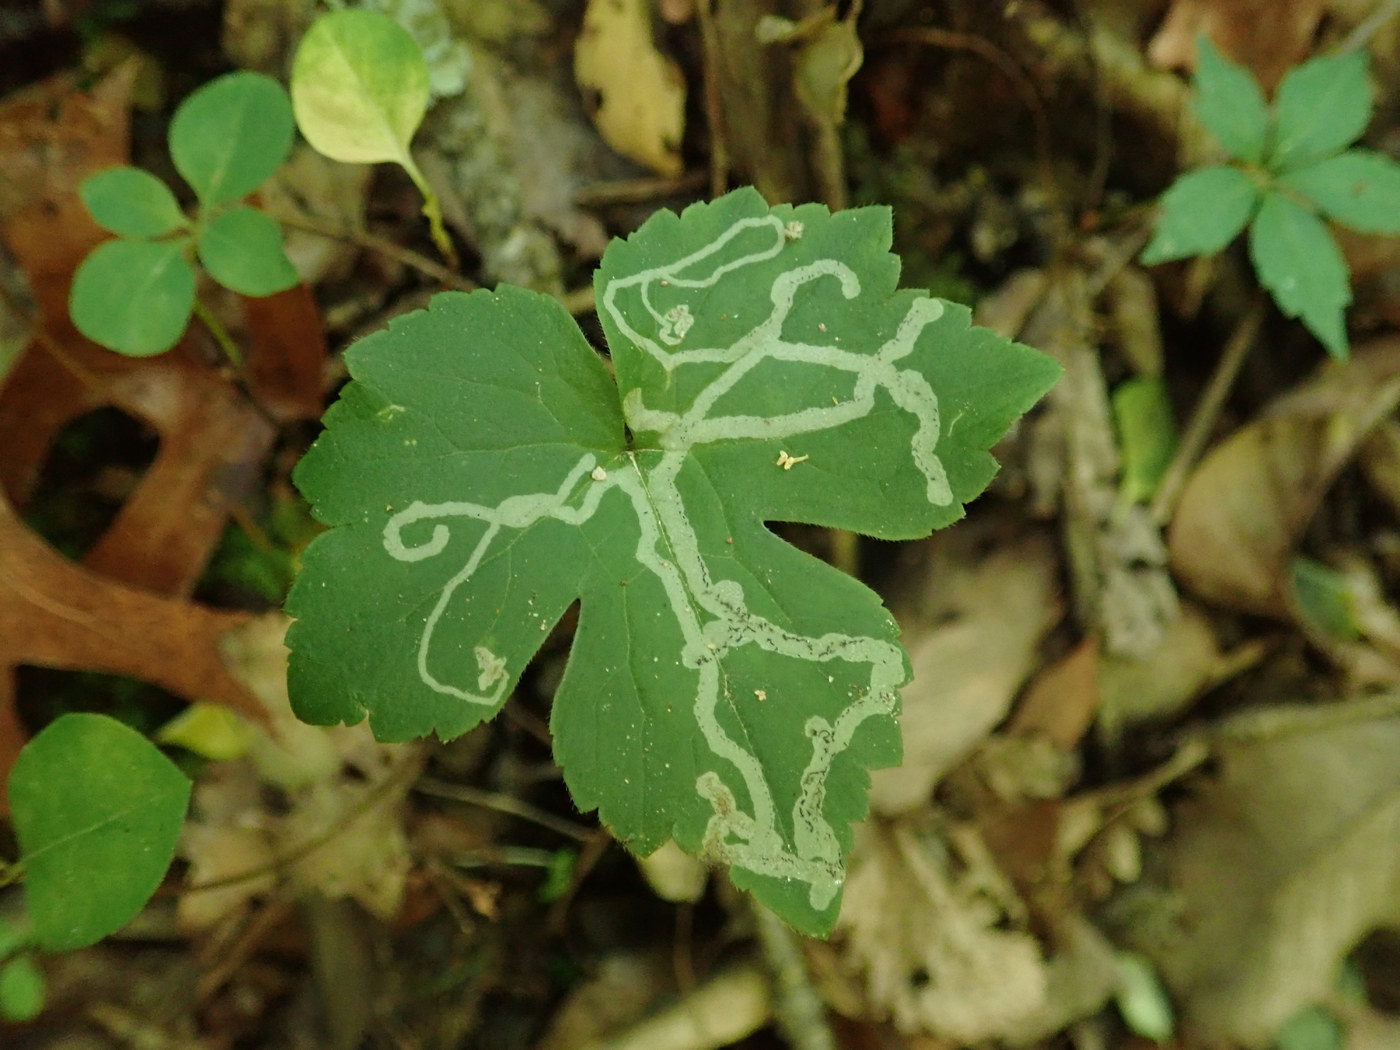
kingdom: Animalia
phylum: Arthropoda
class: Insecta
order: Diptera
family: Agromyzidae
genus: Phytomyza
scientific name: Phytomyza loewii
